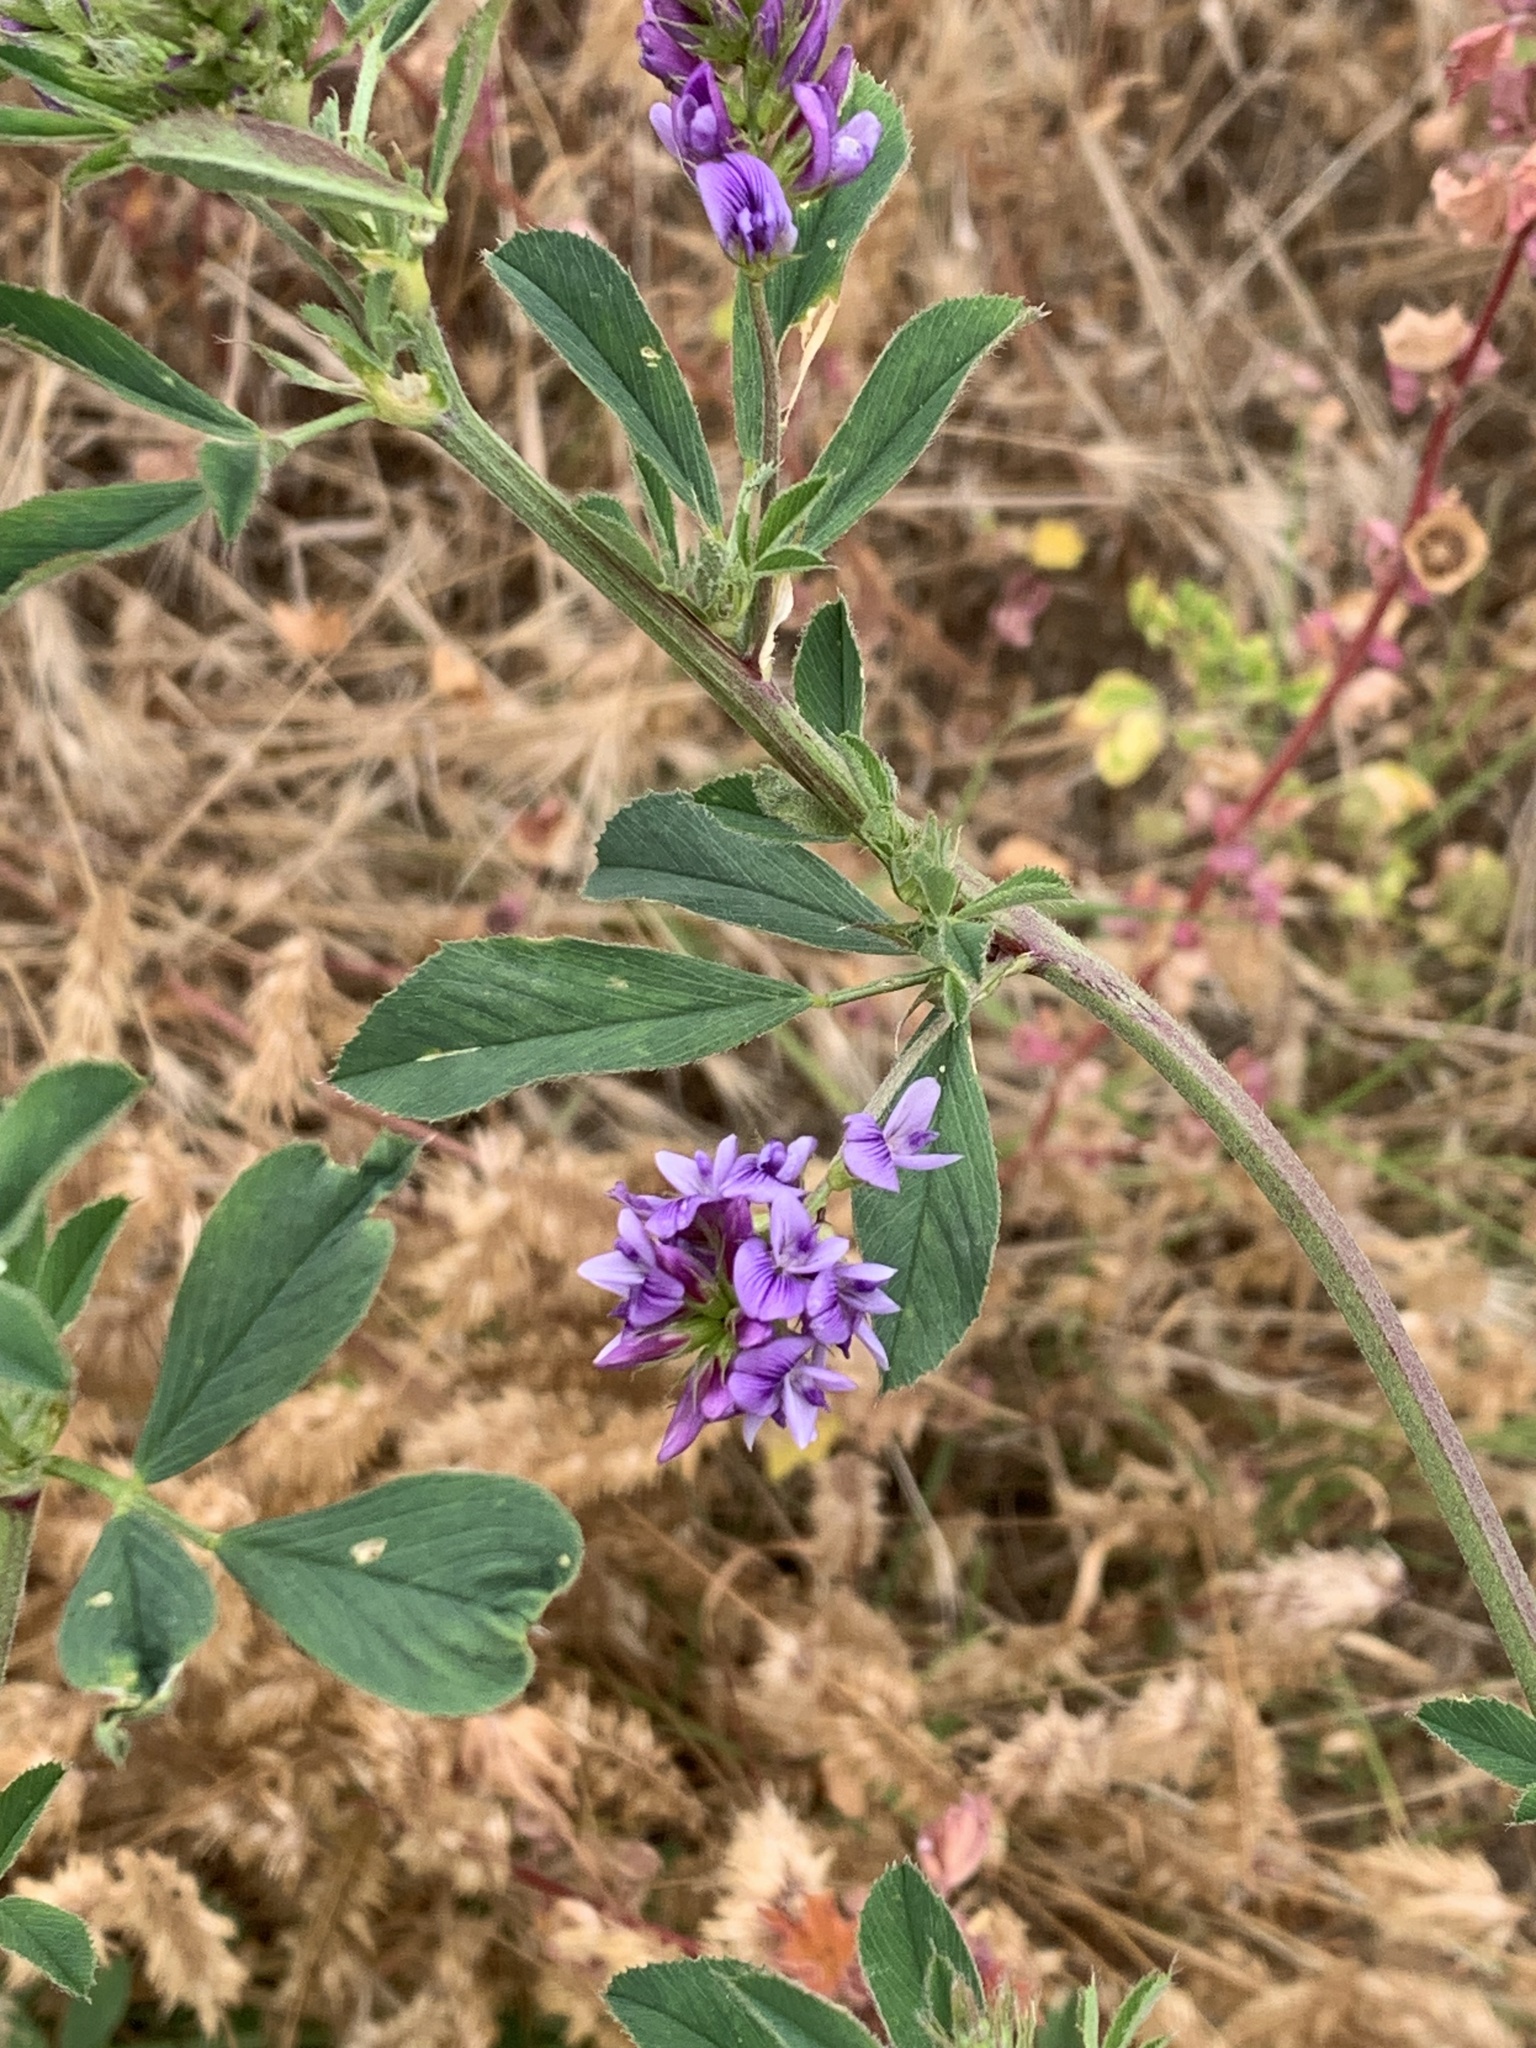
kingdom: Plantae
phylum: Tracheophyta
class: Magnoliopsida
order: Fabales
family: Fabaceae
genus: Medicago
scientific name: Medicago sativa
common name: Alfalfa
